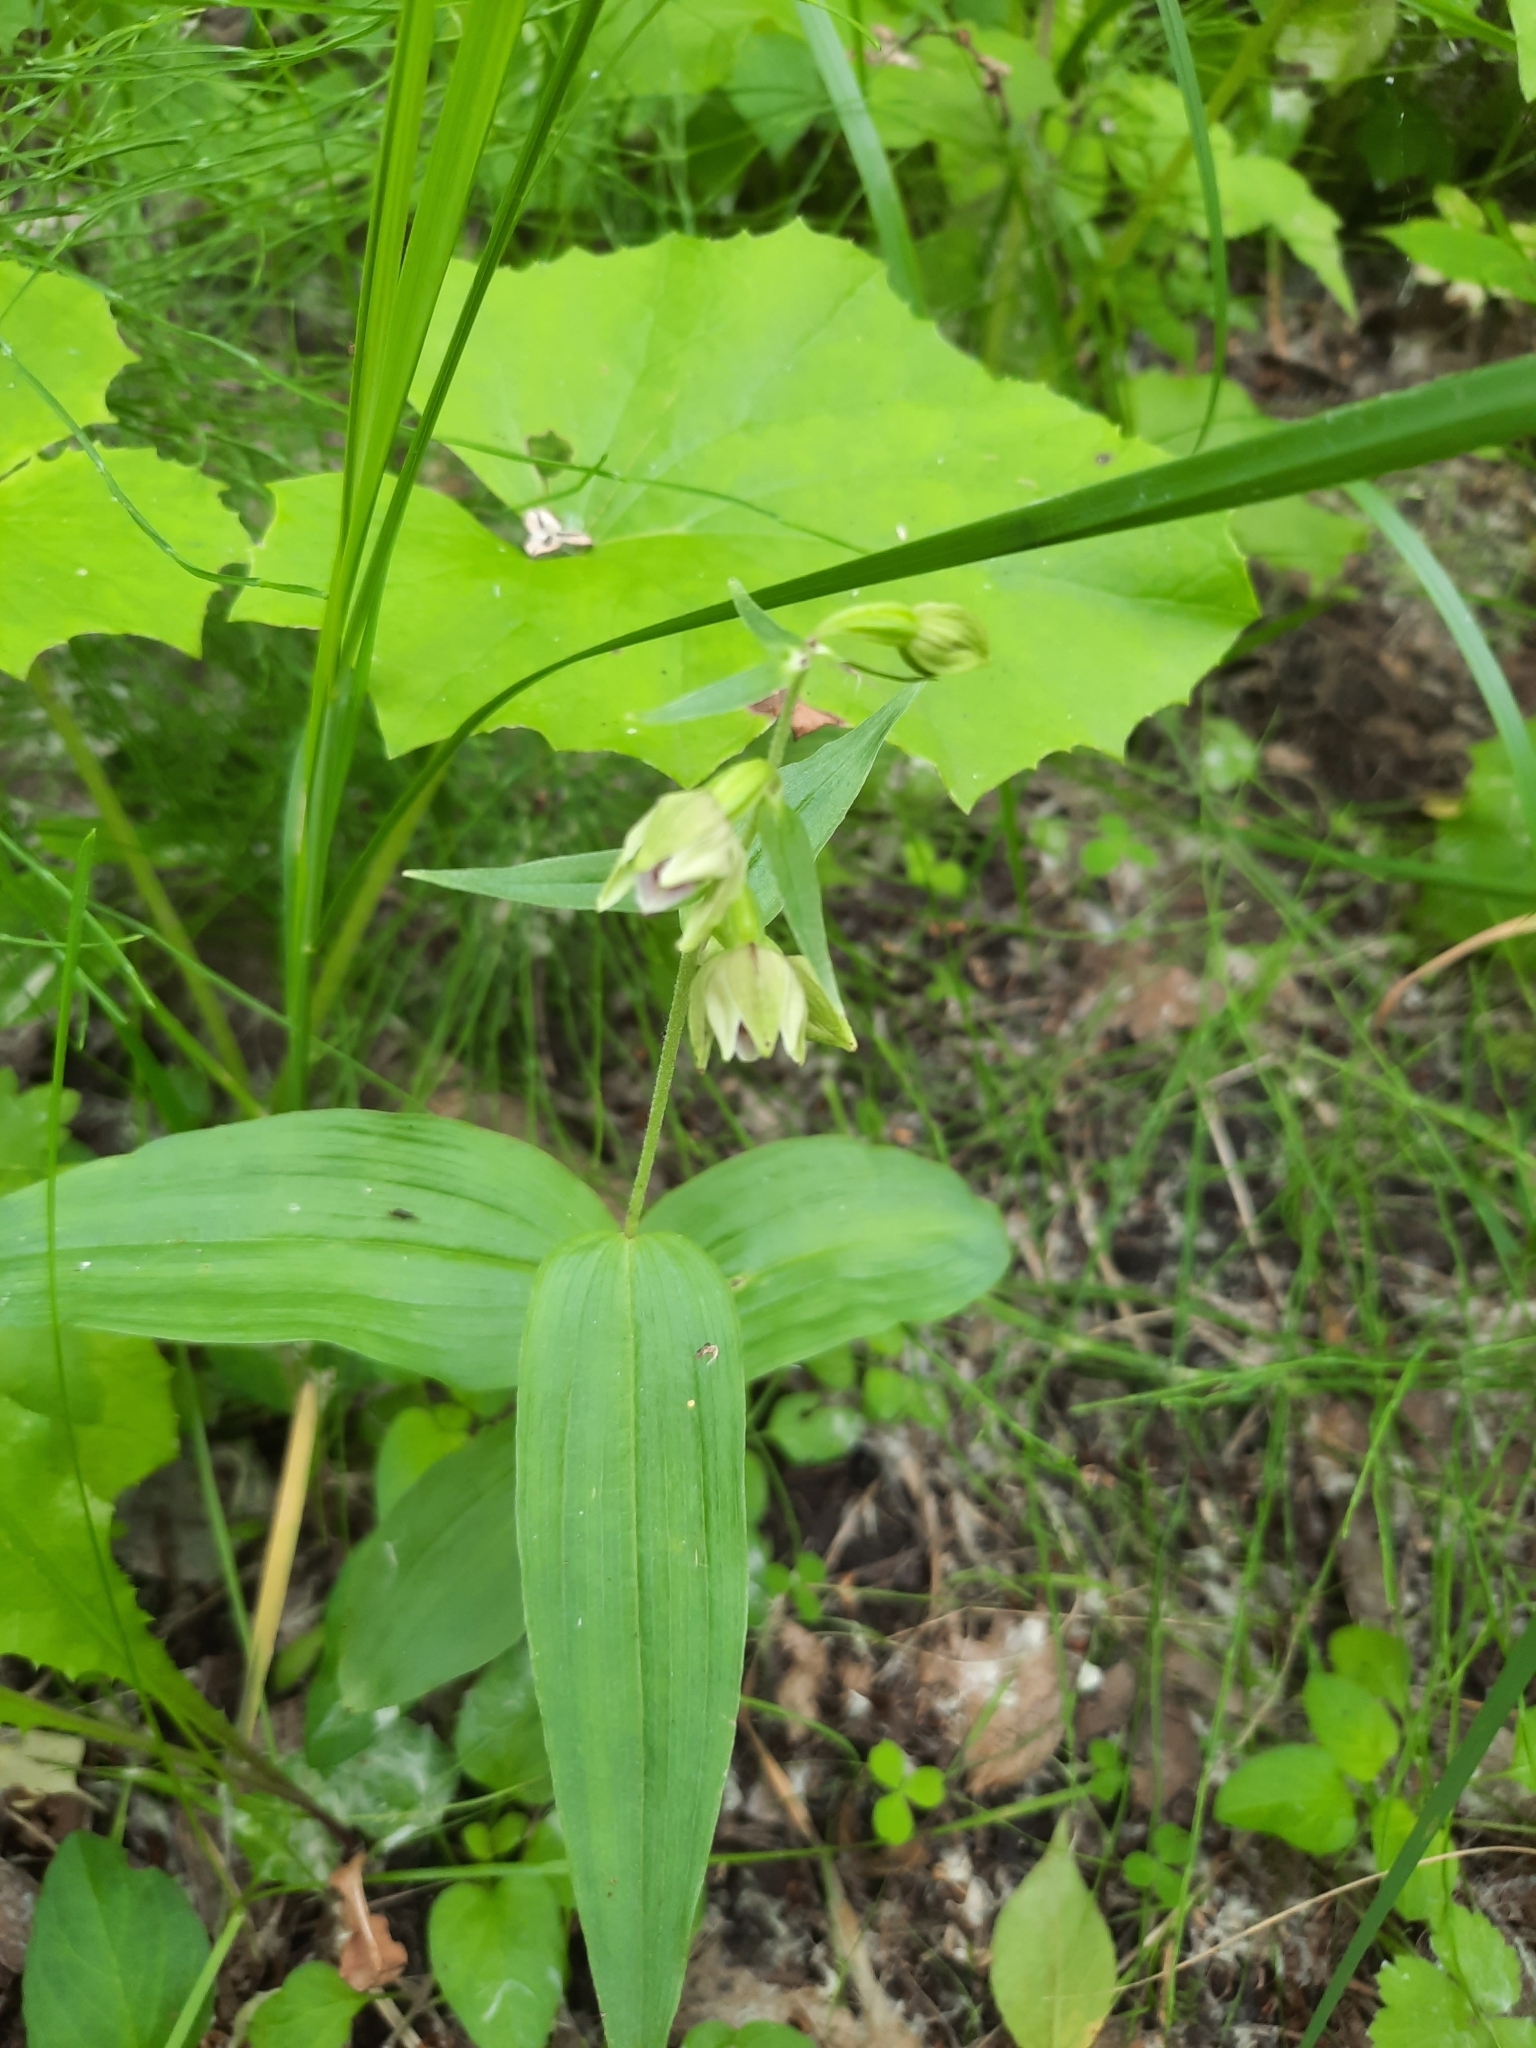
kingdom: Plantae
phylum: Tracheophyta
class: Liliopsida
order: Asparagales
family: Orchidaceae
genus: Epipactis
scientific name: Epipactis helleborine
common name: Broad-leaved helleborine
